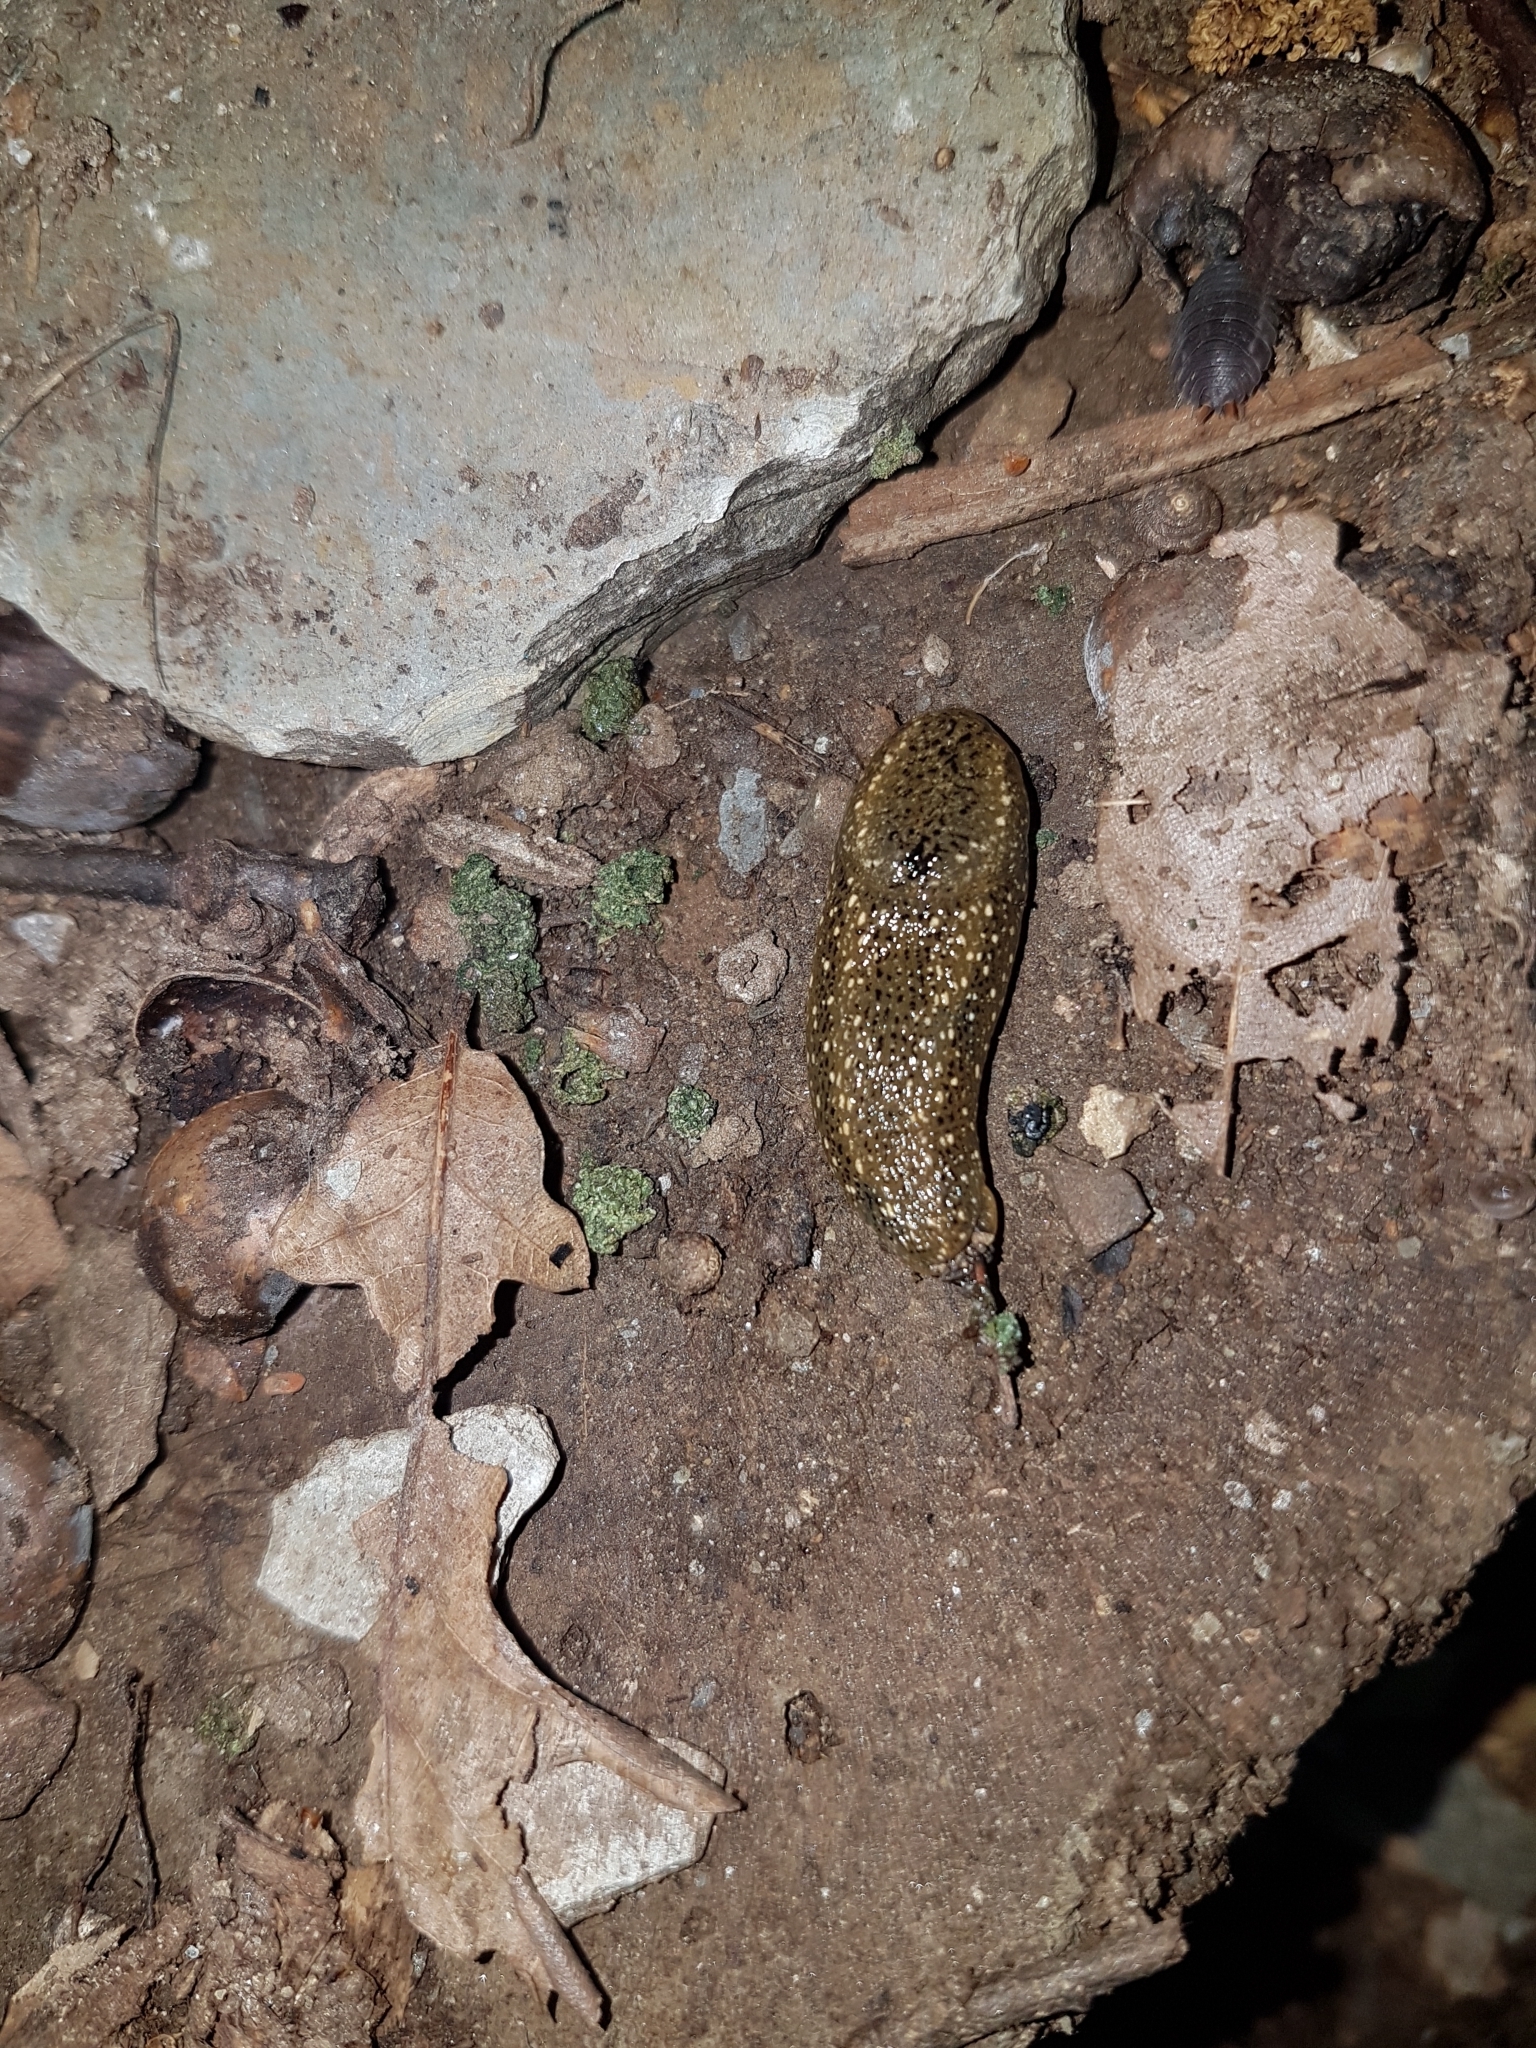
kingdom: Animalia
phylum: Mollusca
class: Gastropoda
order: Stylommatophora
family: Arionidae
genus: Geomalacus
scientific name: Geomalacus maculosus
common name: Kerry slug
